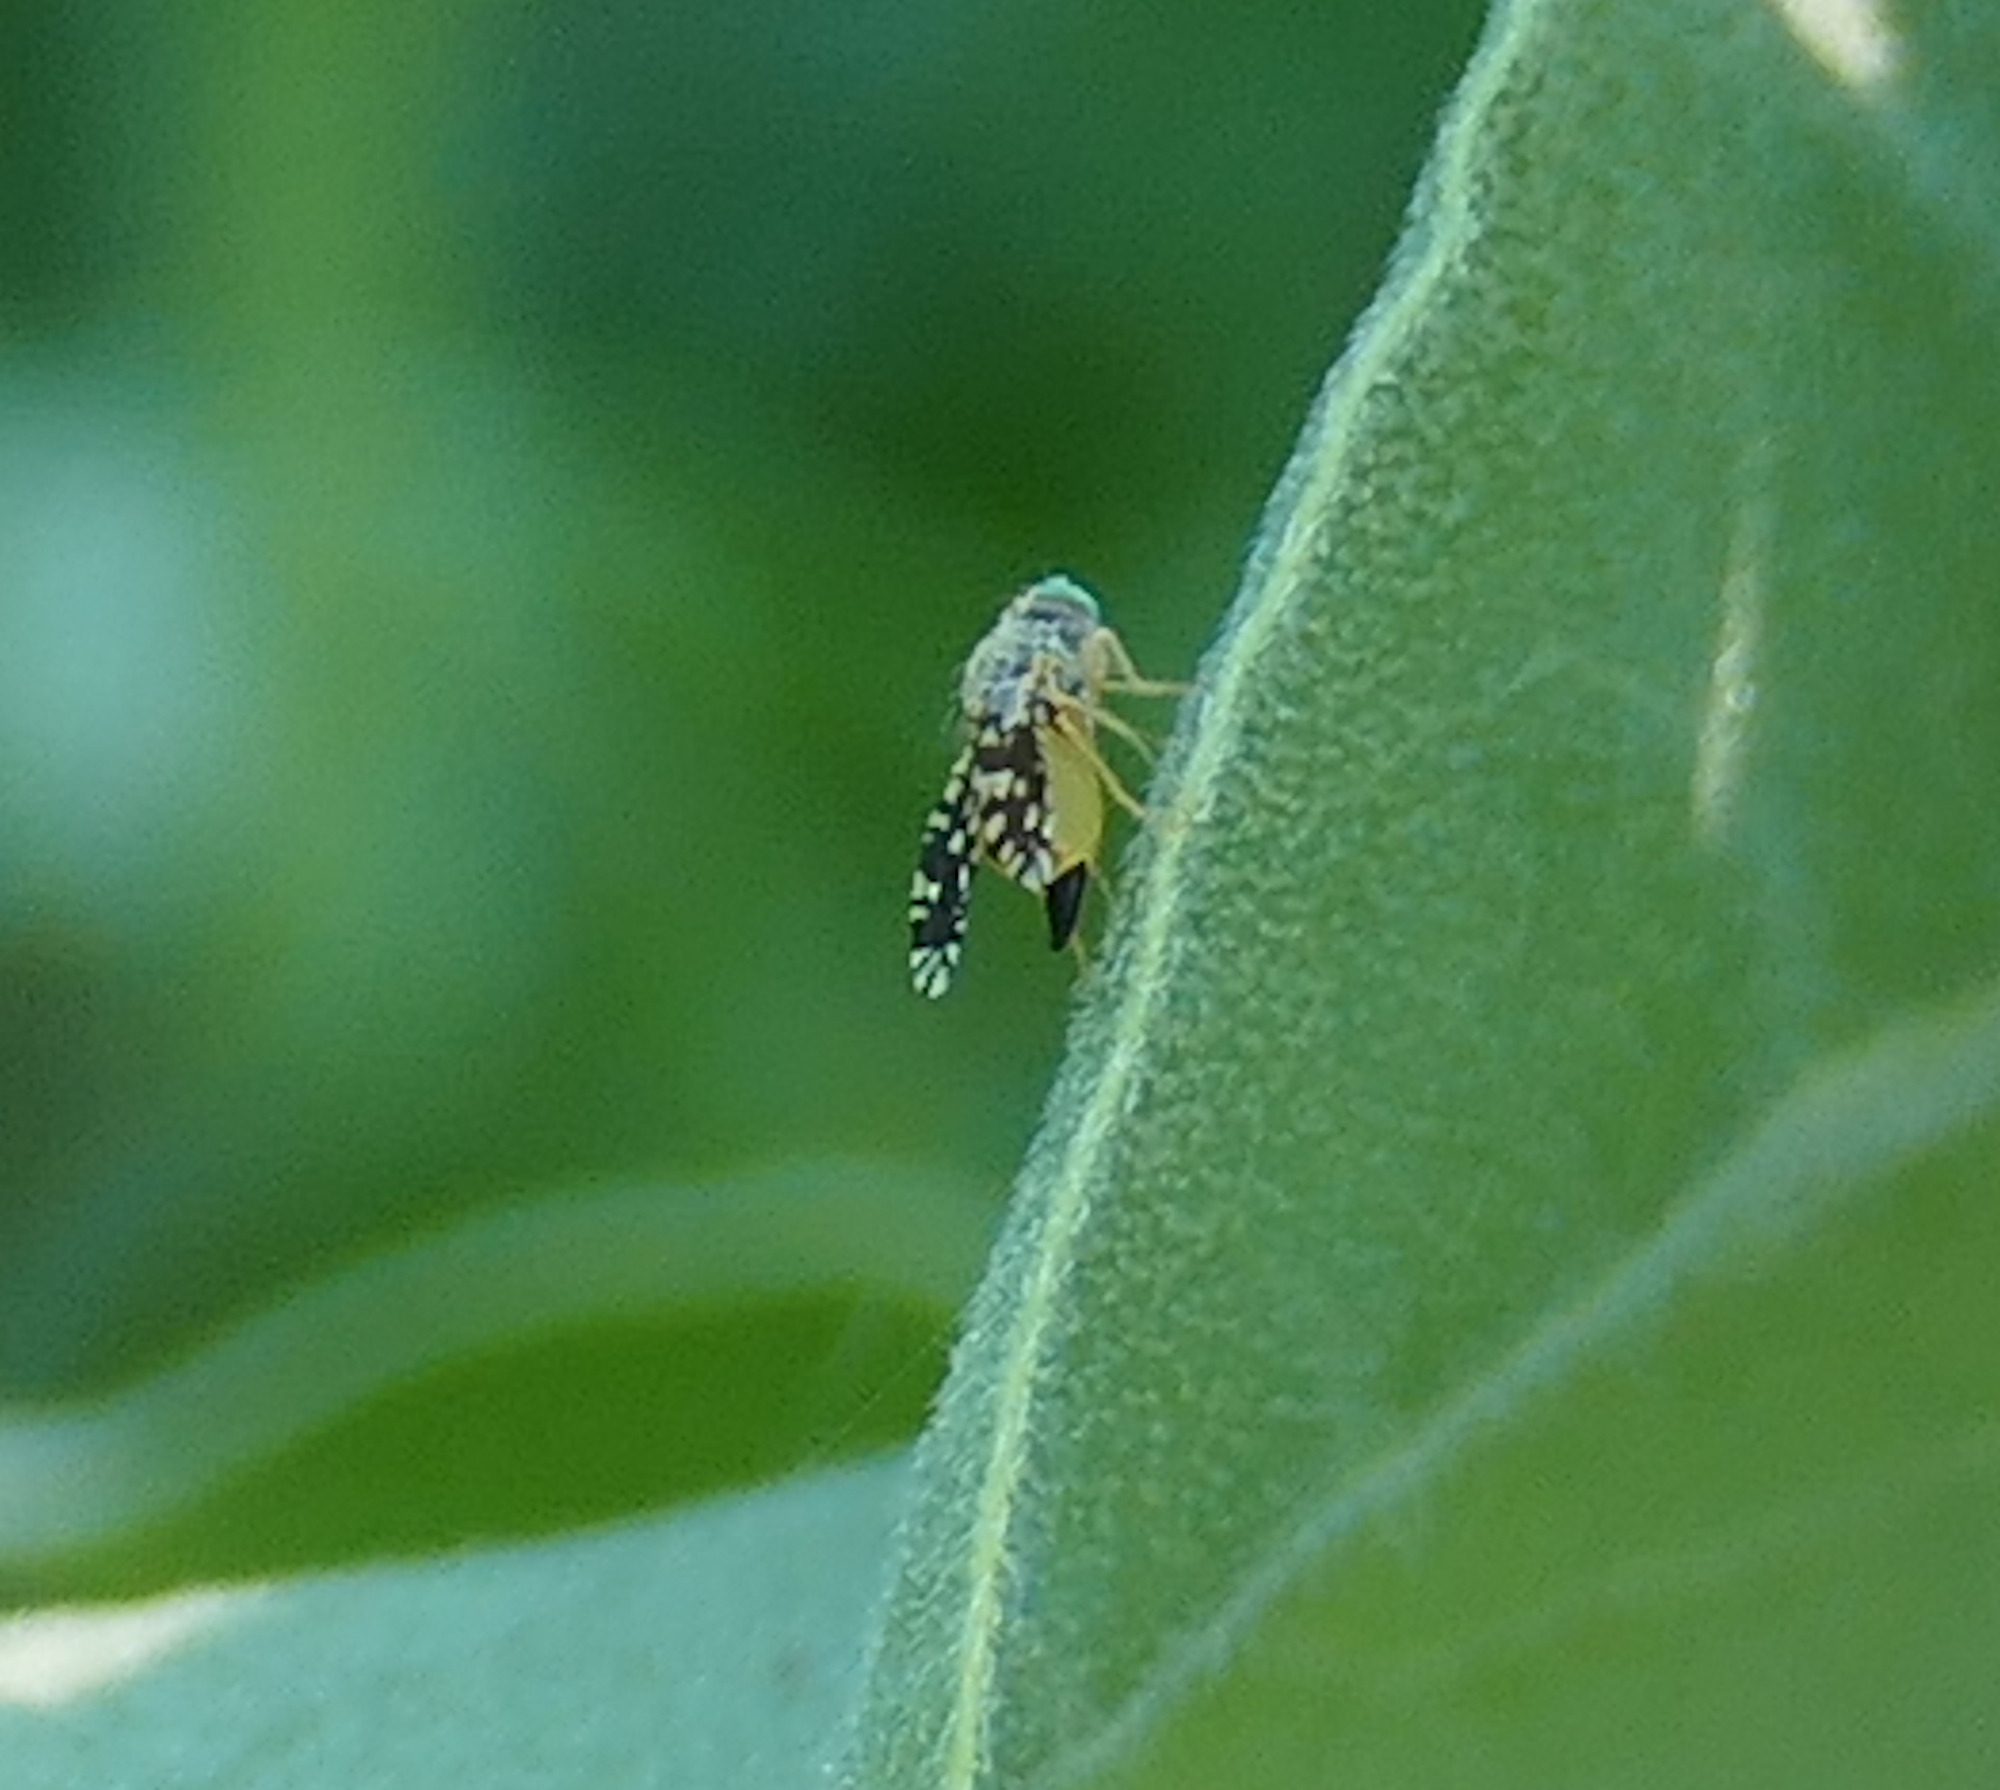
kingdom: Animalia
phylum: Arthropoda
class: Insecta
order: Diptera
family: Tephritidae
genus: Euaresta
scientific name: Euaresta bellula
